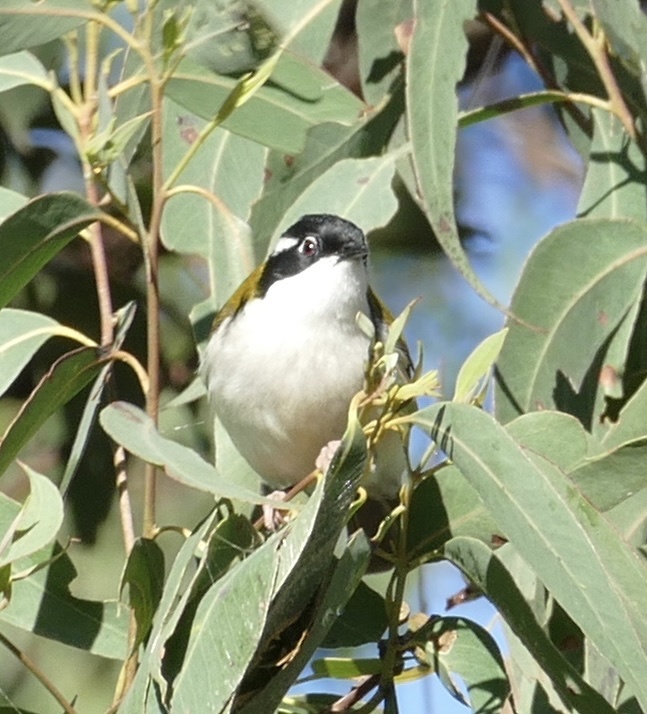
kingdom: Animalia
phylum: Chordata
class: Aves
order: Passeriformes
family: Meliphagidae
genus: Melithreptus
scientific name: Melithreptus albogularis
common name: White-throated honeyeater
